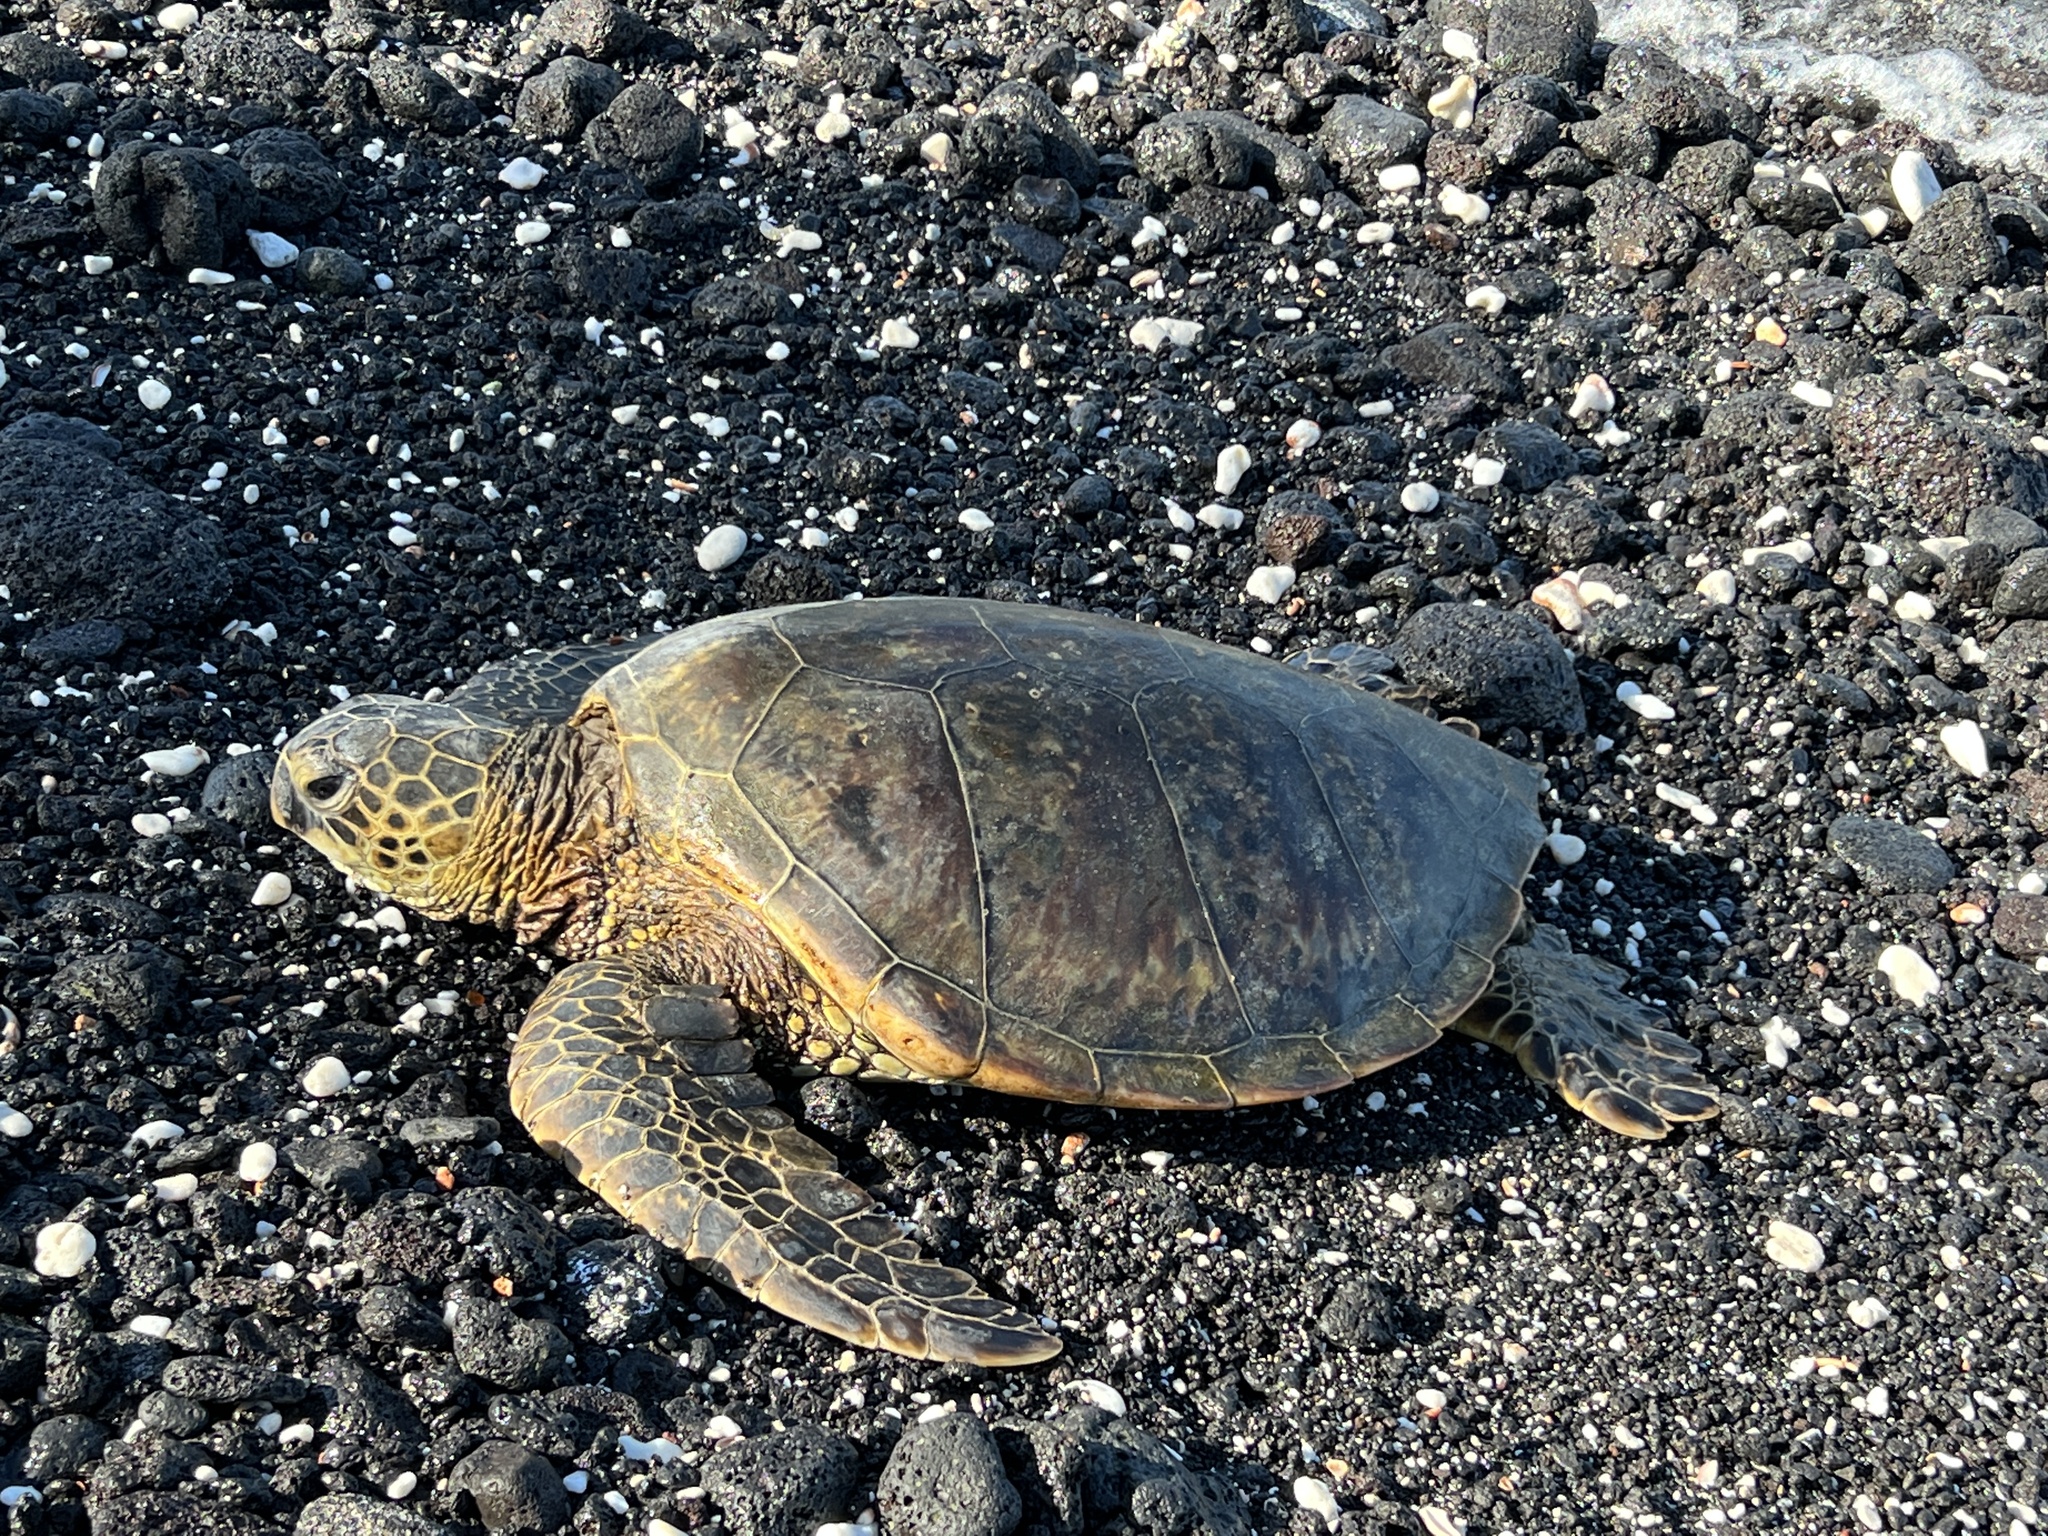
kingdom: Animalia
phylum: Chordata
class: Testudines
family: Cheloniidae
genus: Chelonia
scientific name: Chelonia mydas
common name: Green turtle
